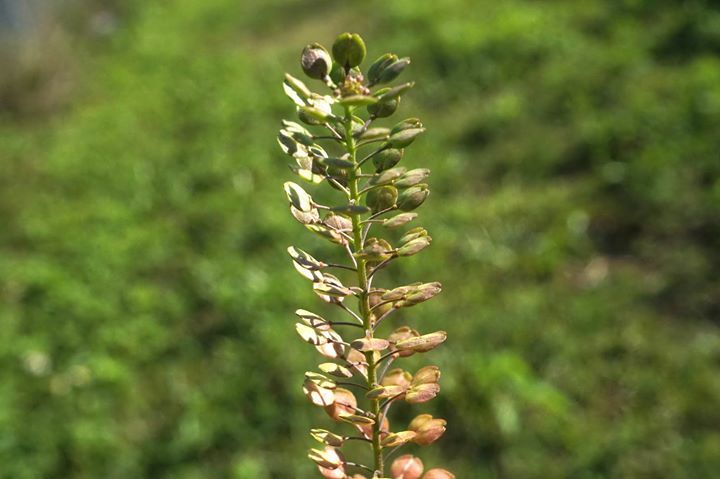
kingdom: Plantae
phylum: Tracheophyta
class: Magnoliopsida
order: Brassicales
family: Brassicaceae
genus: Lepidium
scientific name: Lepidium virginicum
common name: Least pepperwort
